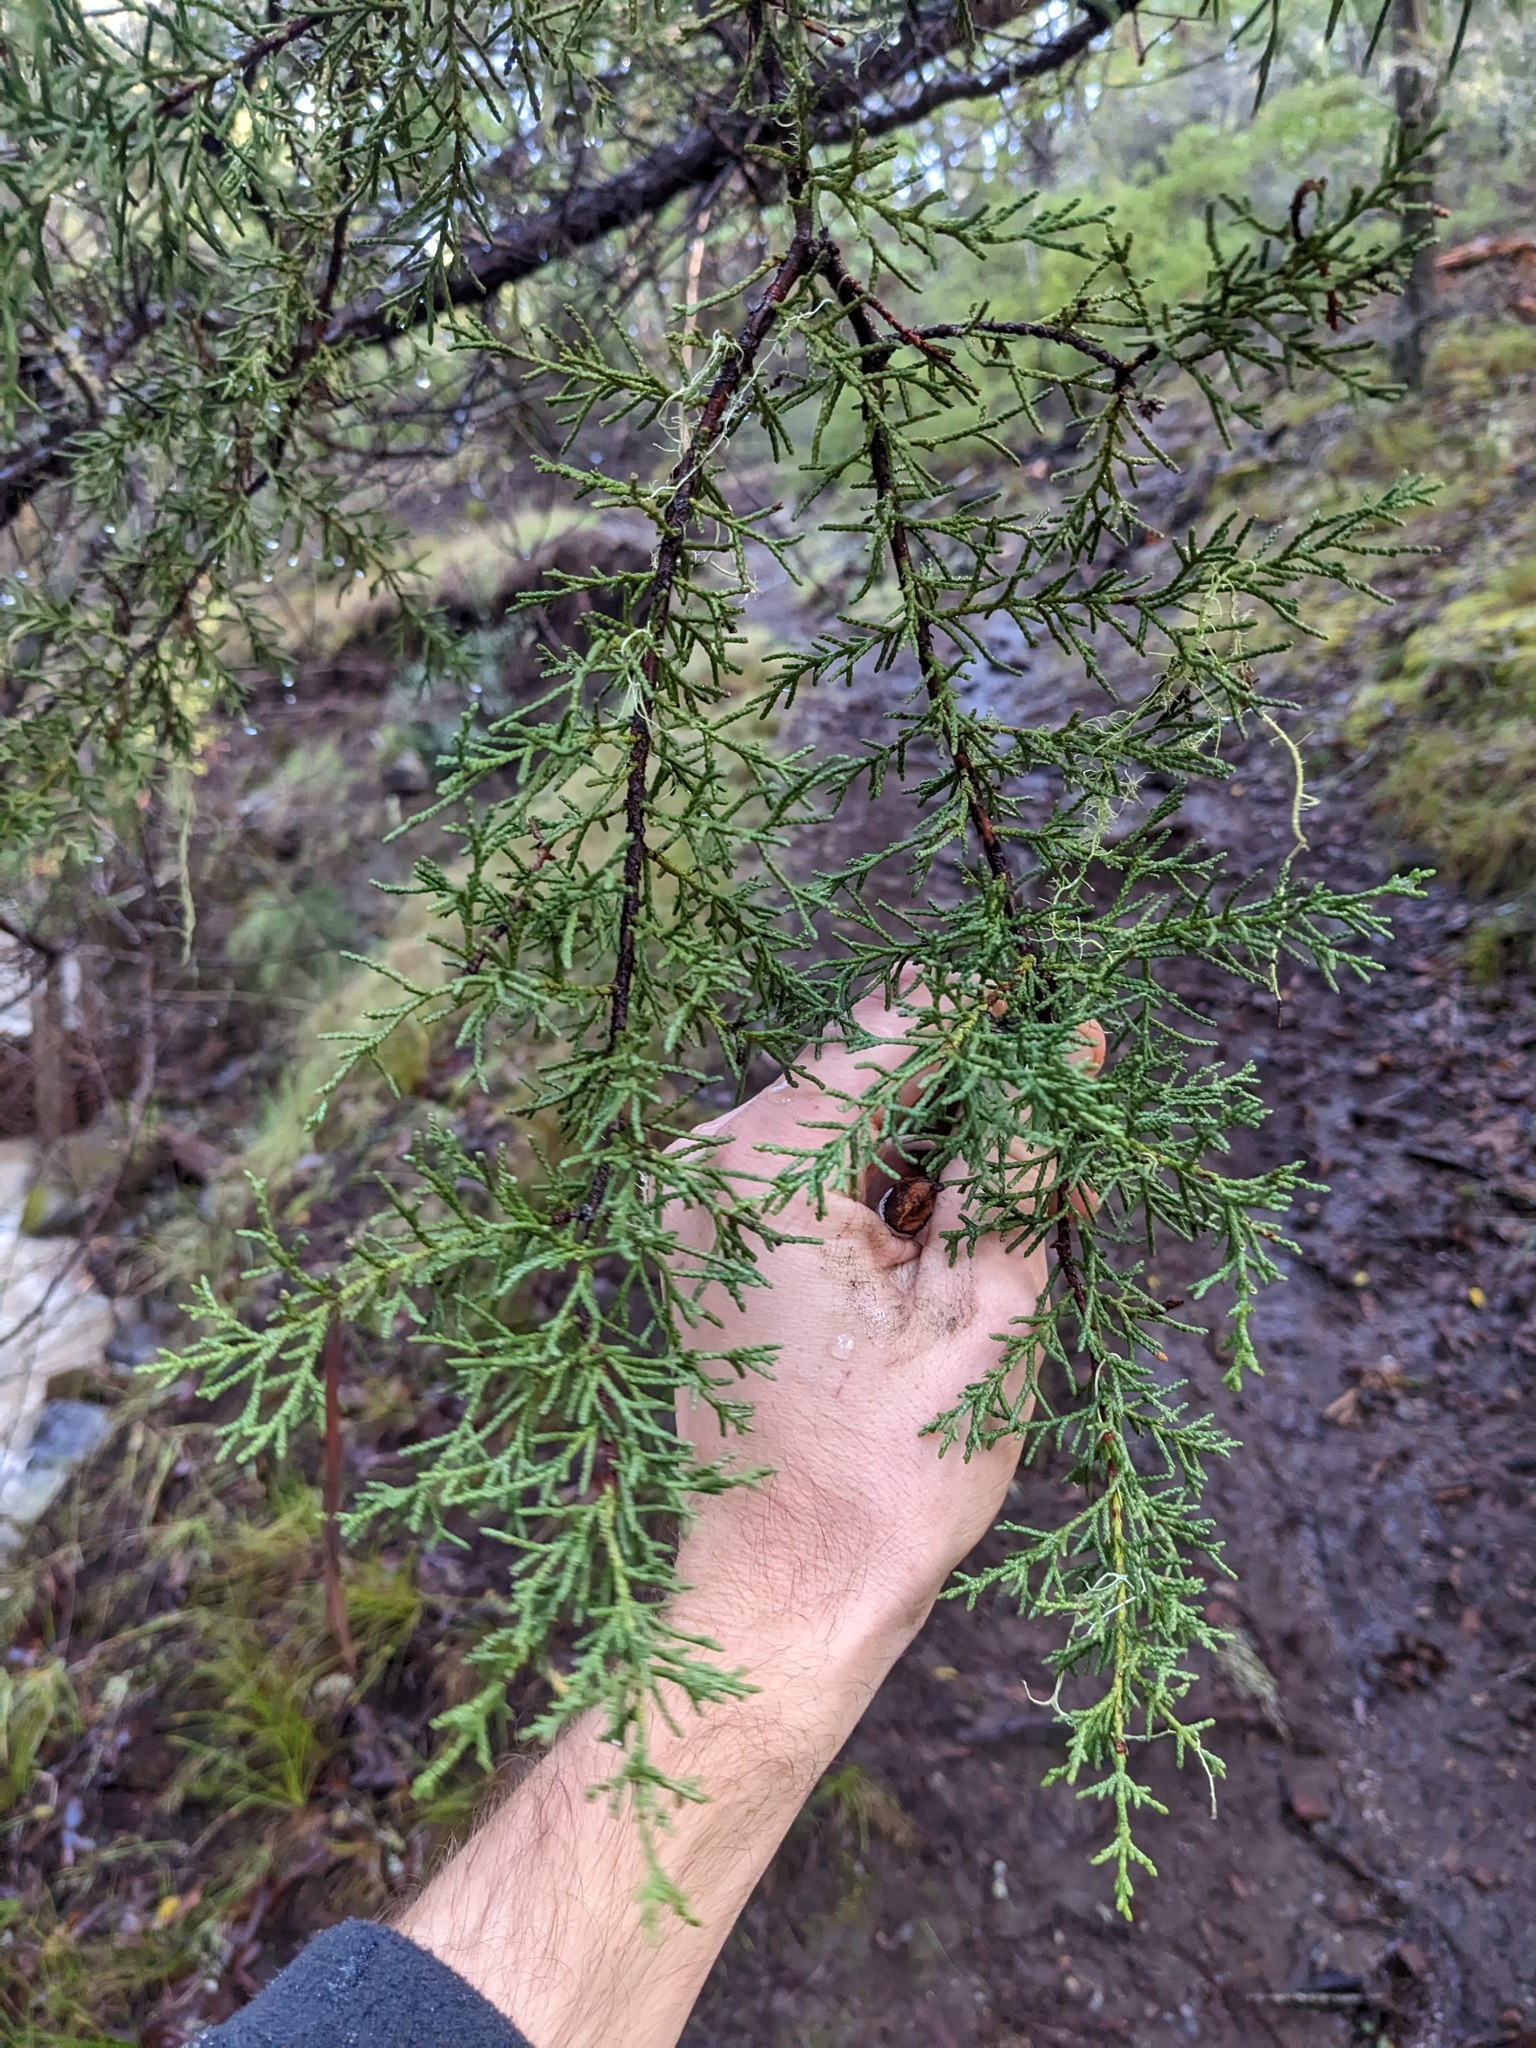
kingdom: Plantae
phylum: Tracheophyta
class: Pinopsida
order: Pinales
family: Cupressaceae
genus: Cupressus
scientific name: Cupressus sargentii
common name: Sargent cypress
